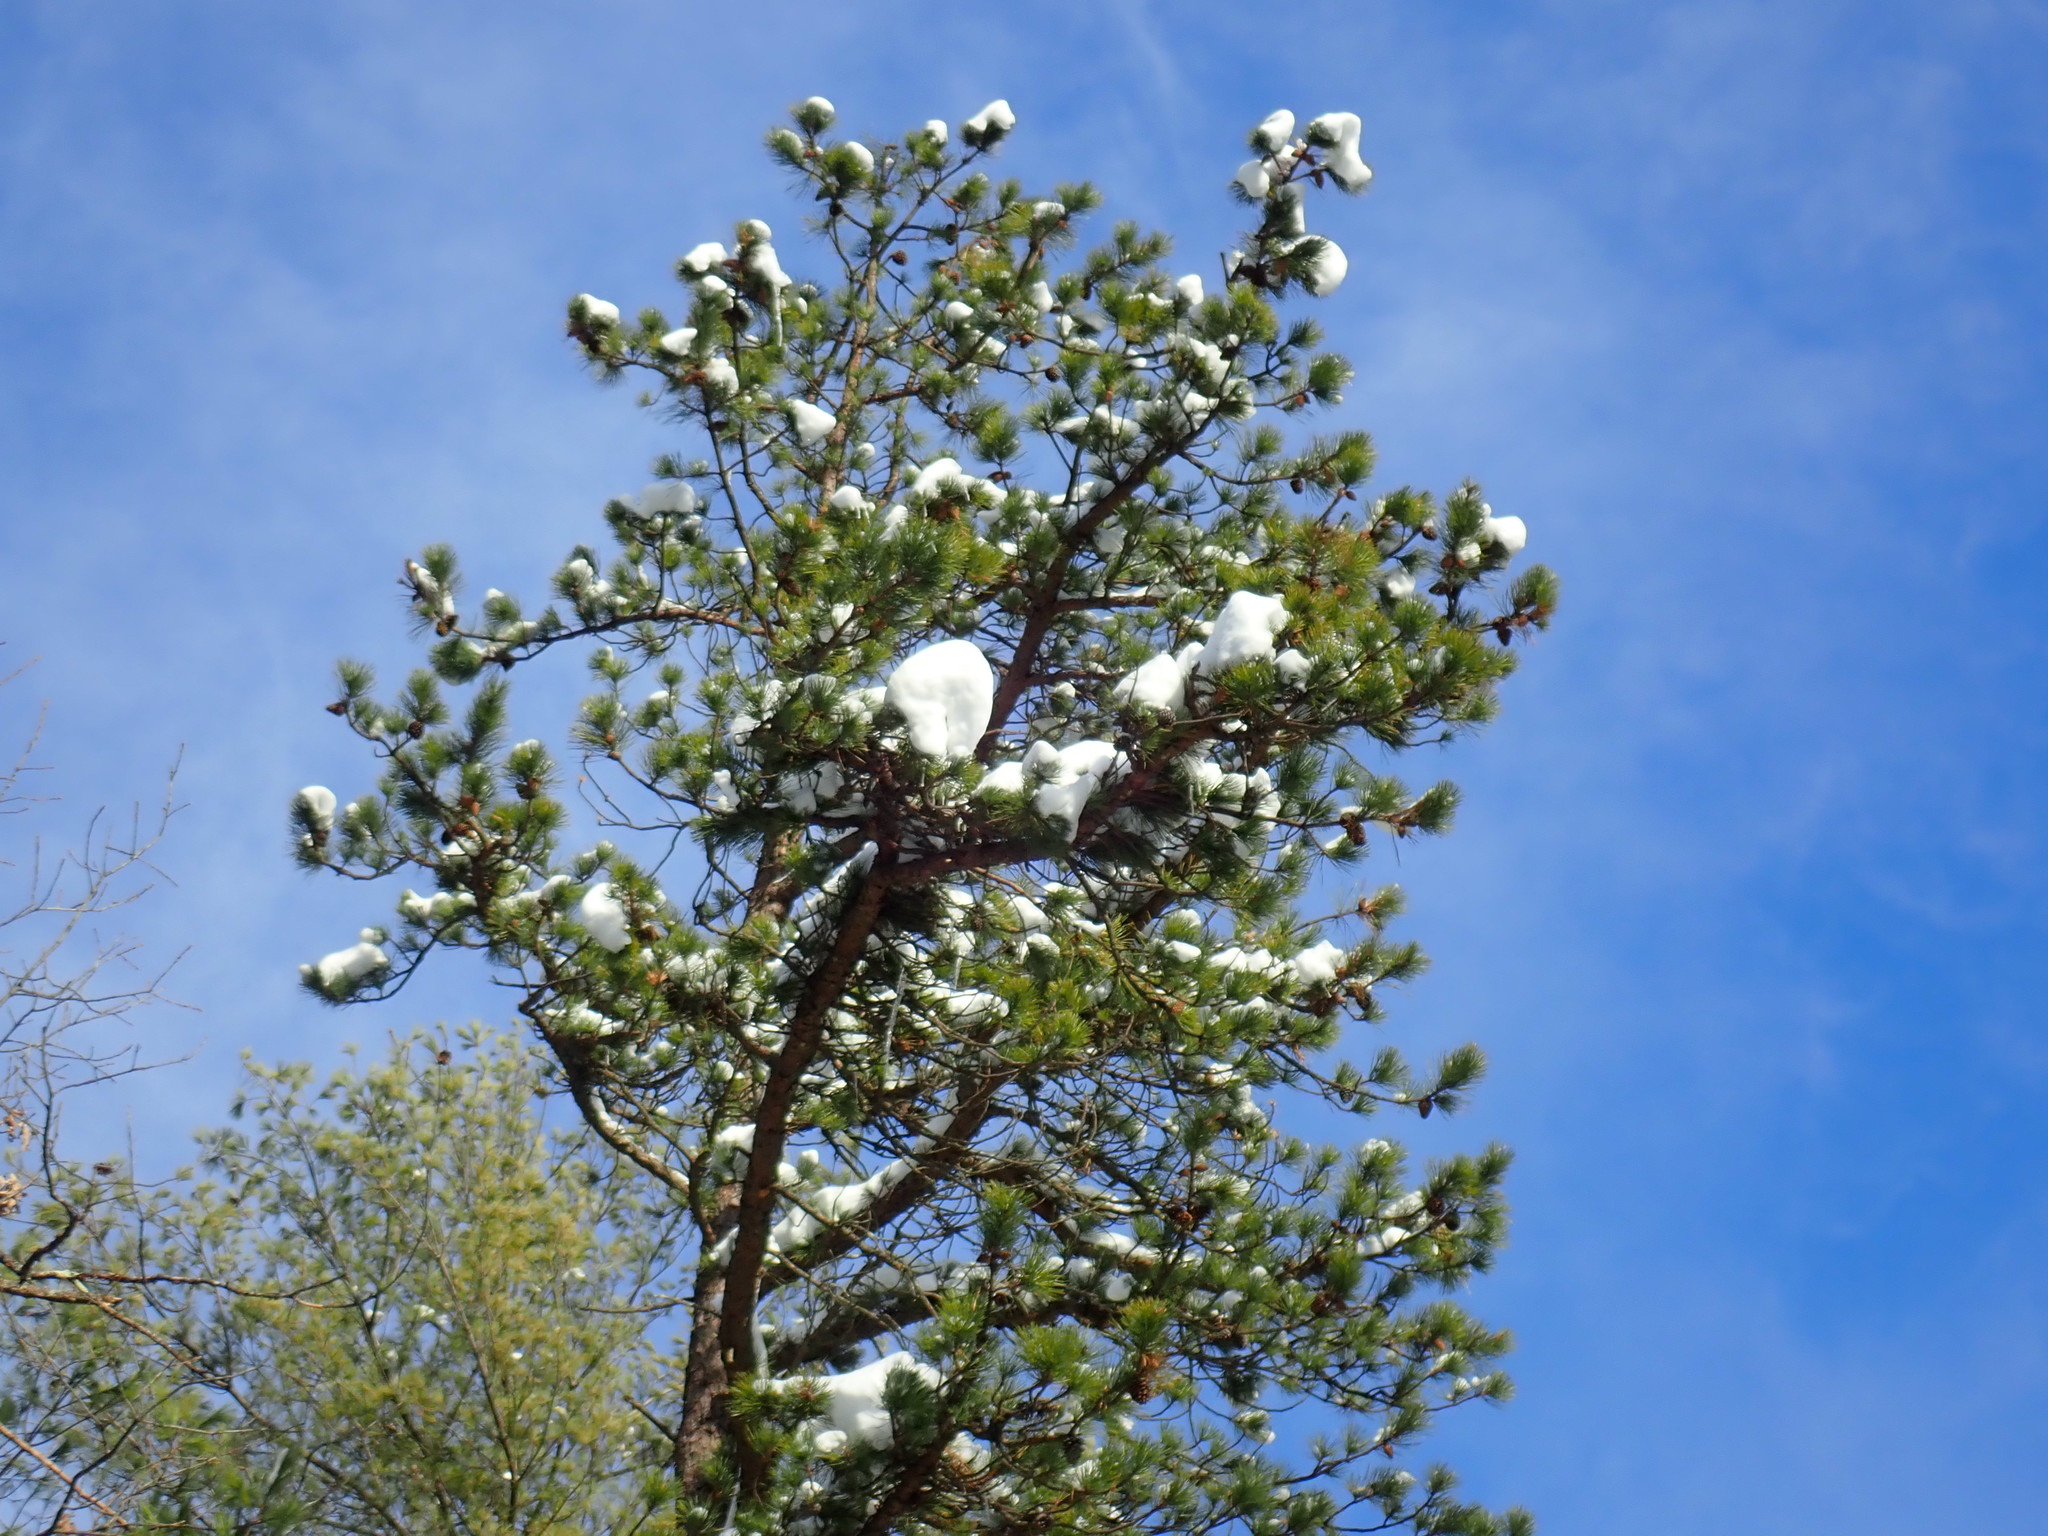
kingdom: Plantae
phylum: Tracheophyta
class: Pinopsida
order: Pinales
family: Pinaceae
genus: Pinus
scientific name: Pinus rigida
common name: Pitch pine
